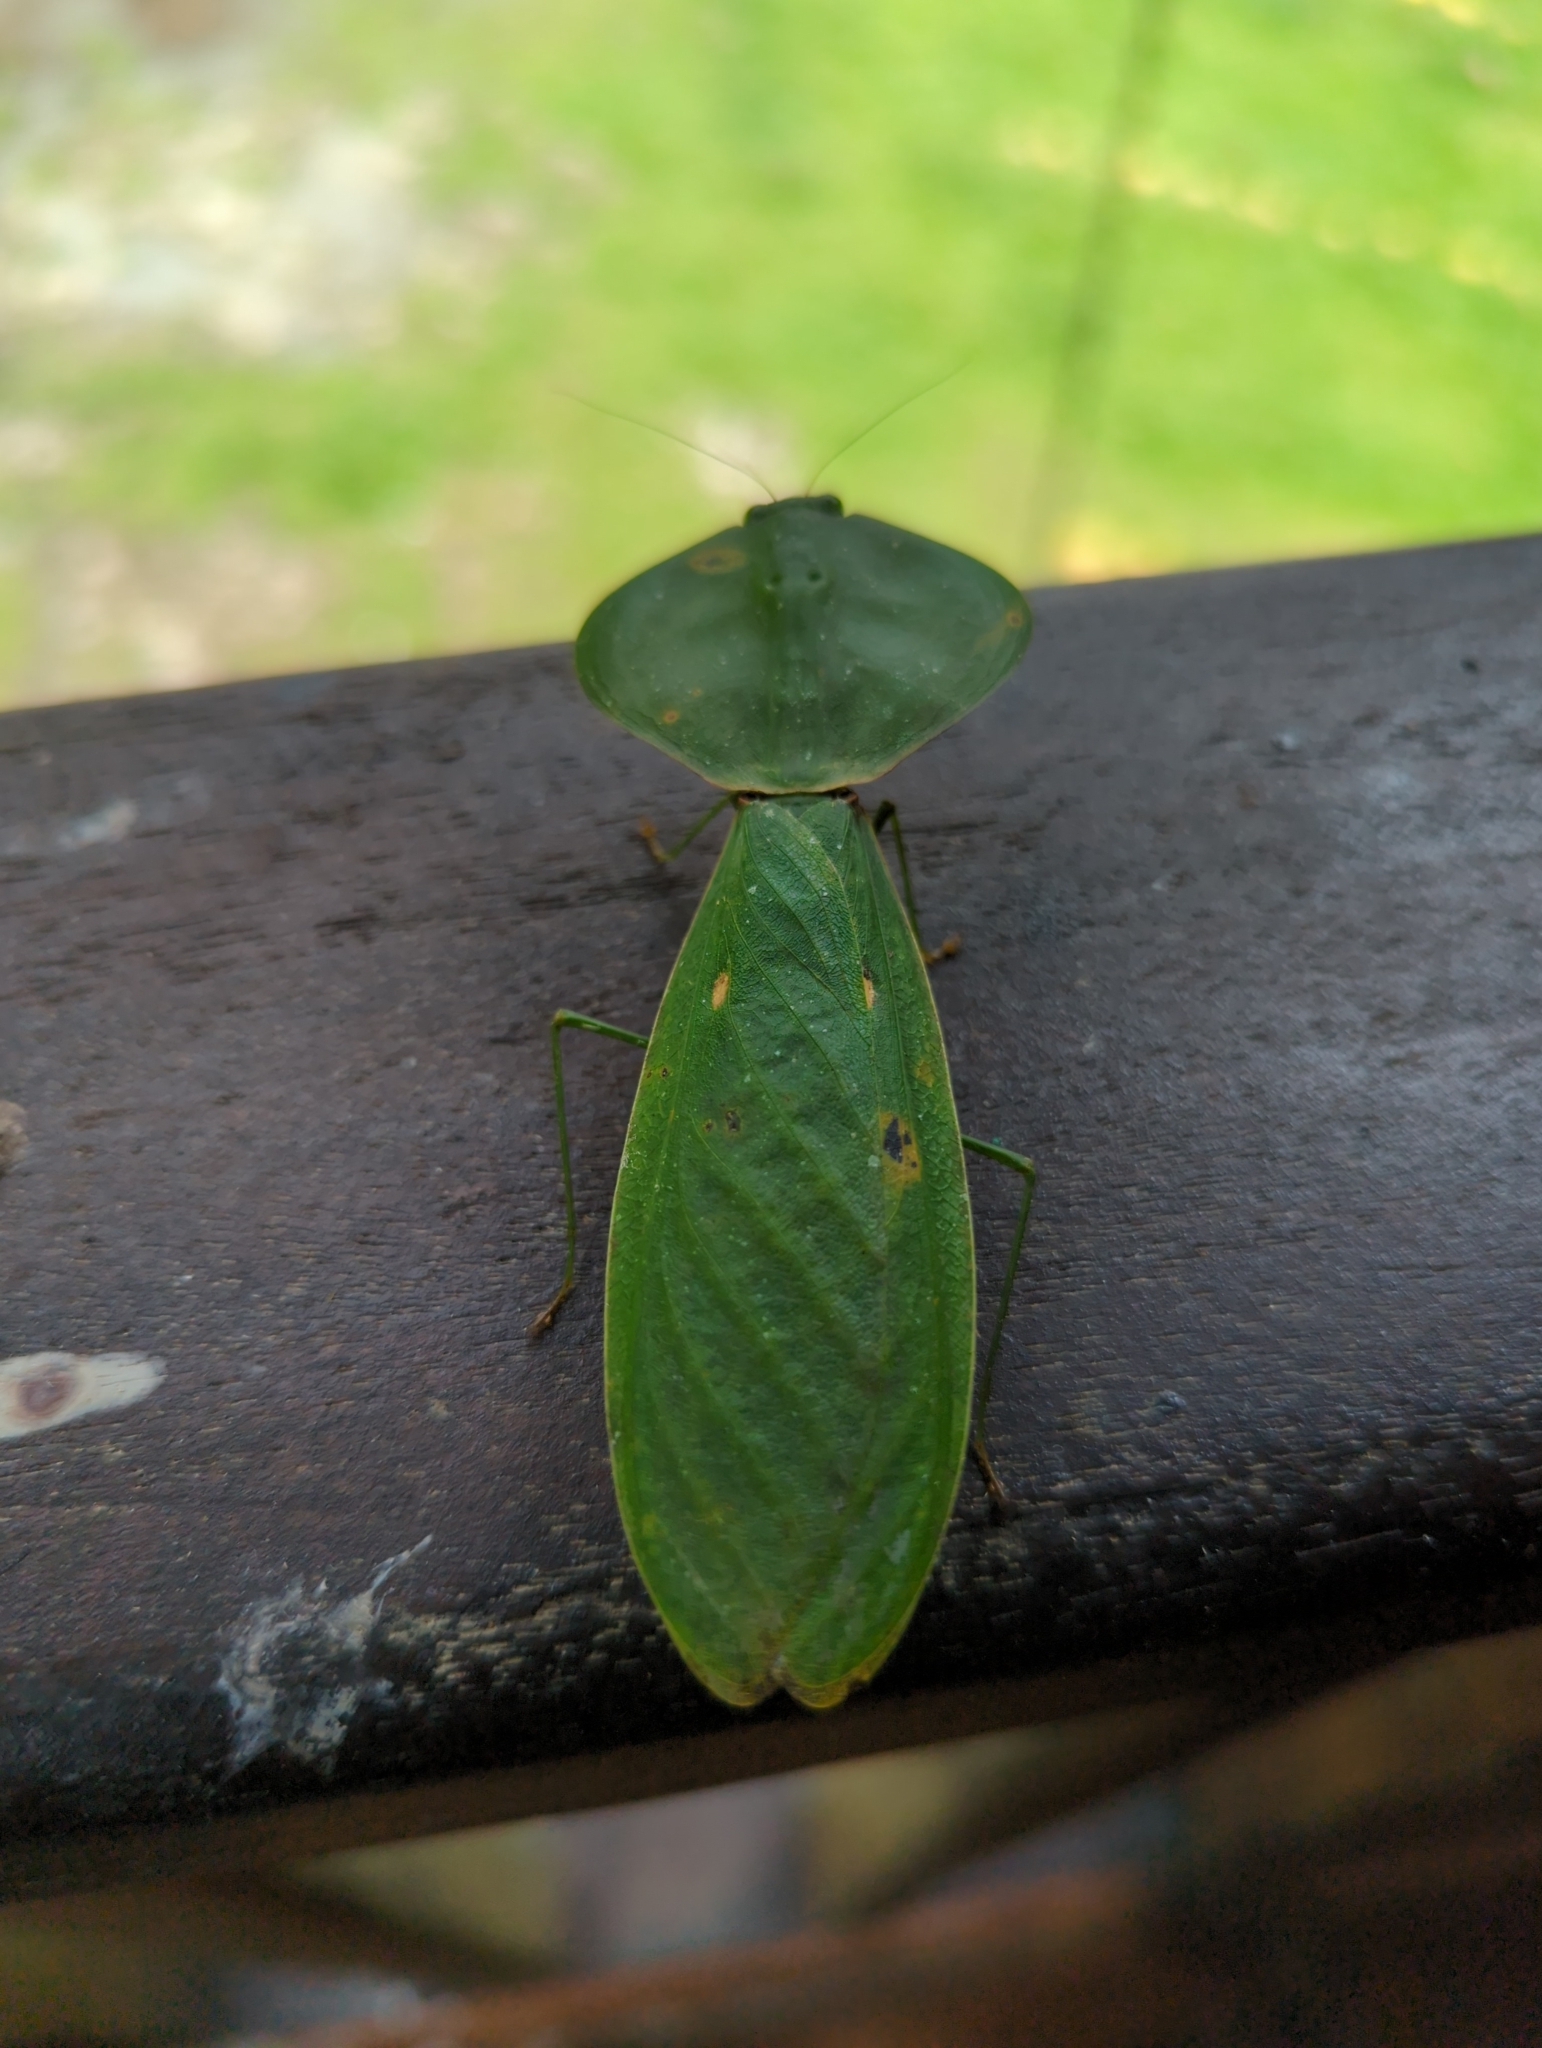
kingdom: Animalia
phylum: Arthropoda
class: Insecta
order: Mantodea
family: Mantidae
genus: Choeradodis
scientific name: Choeradodis rhombicollis
